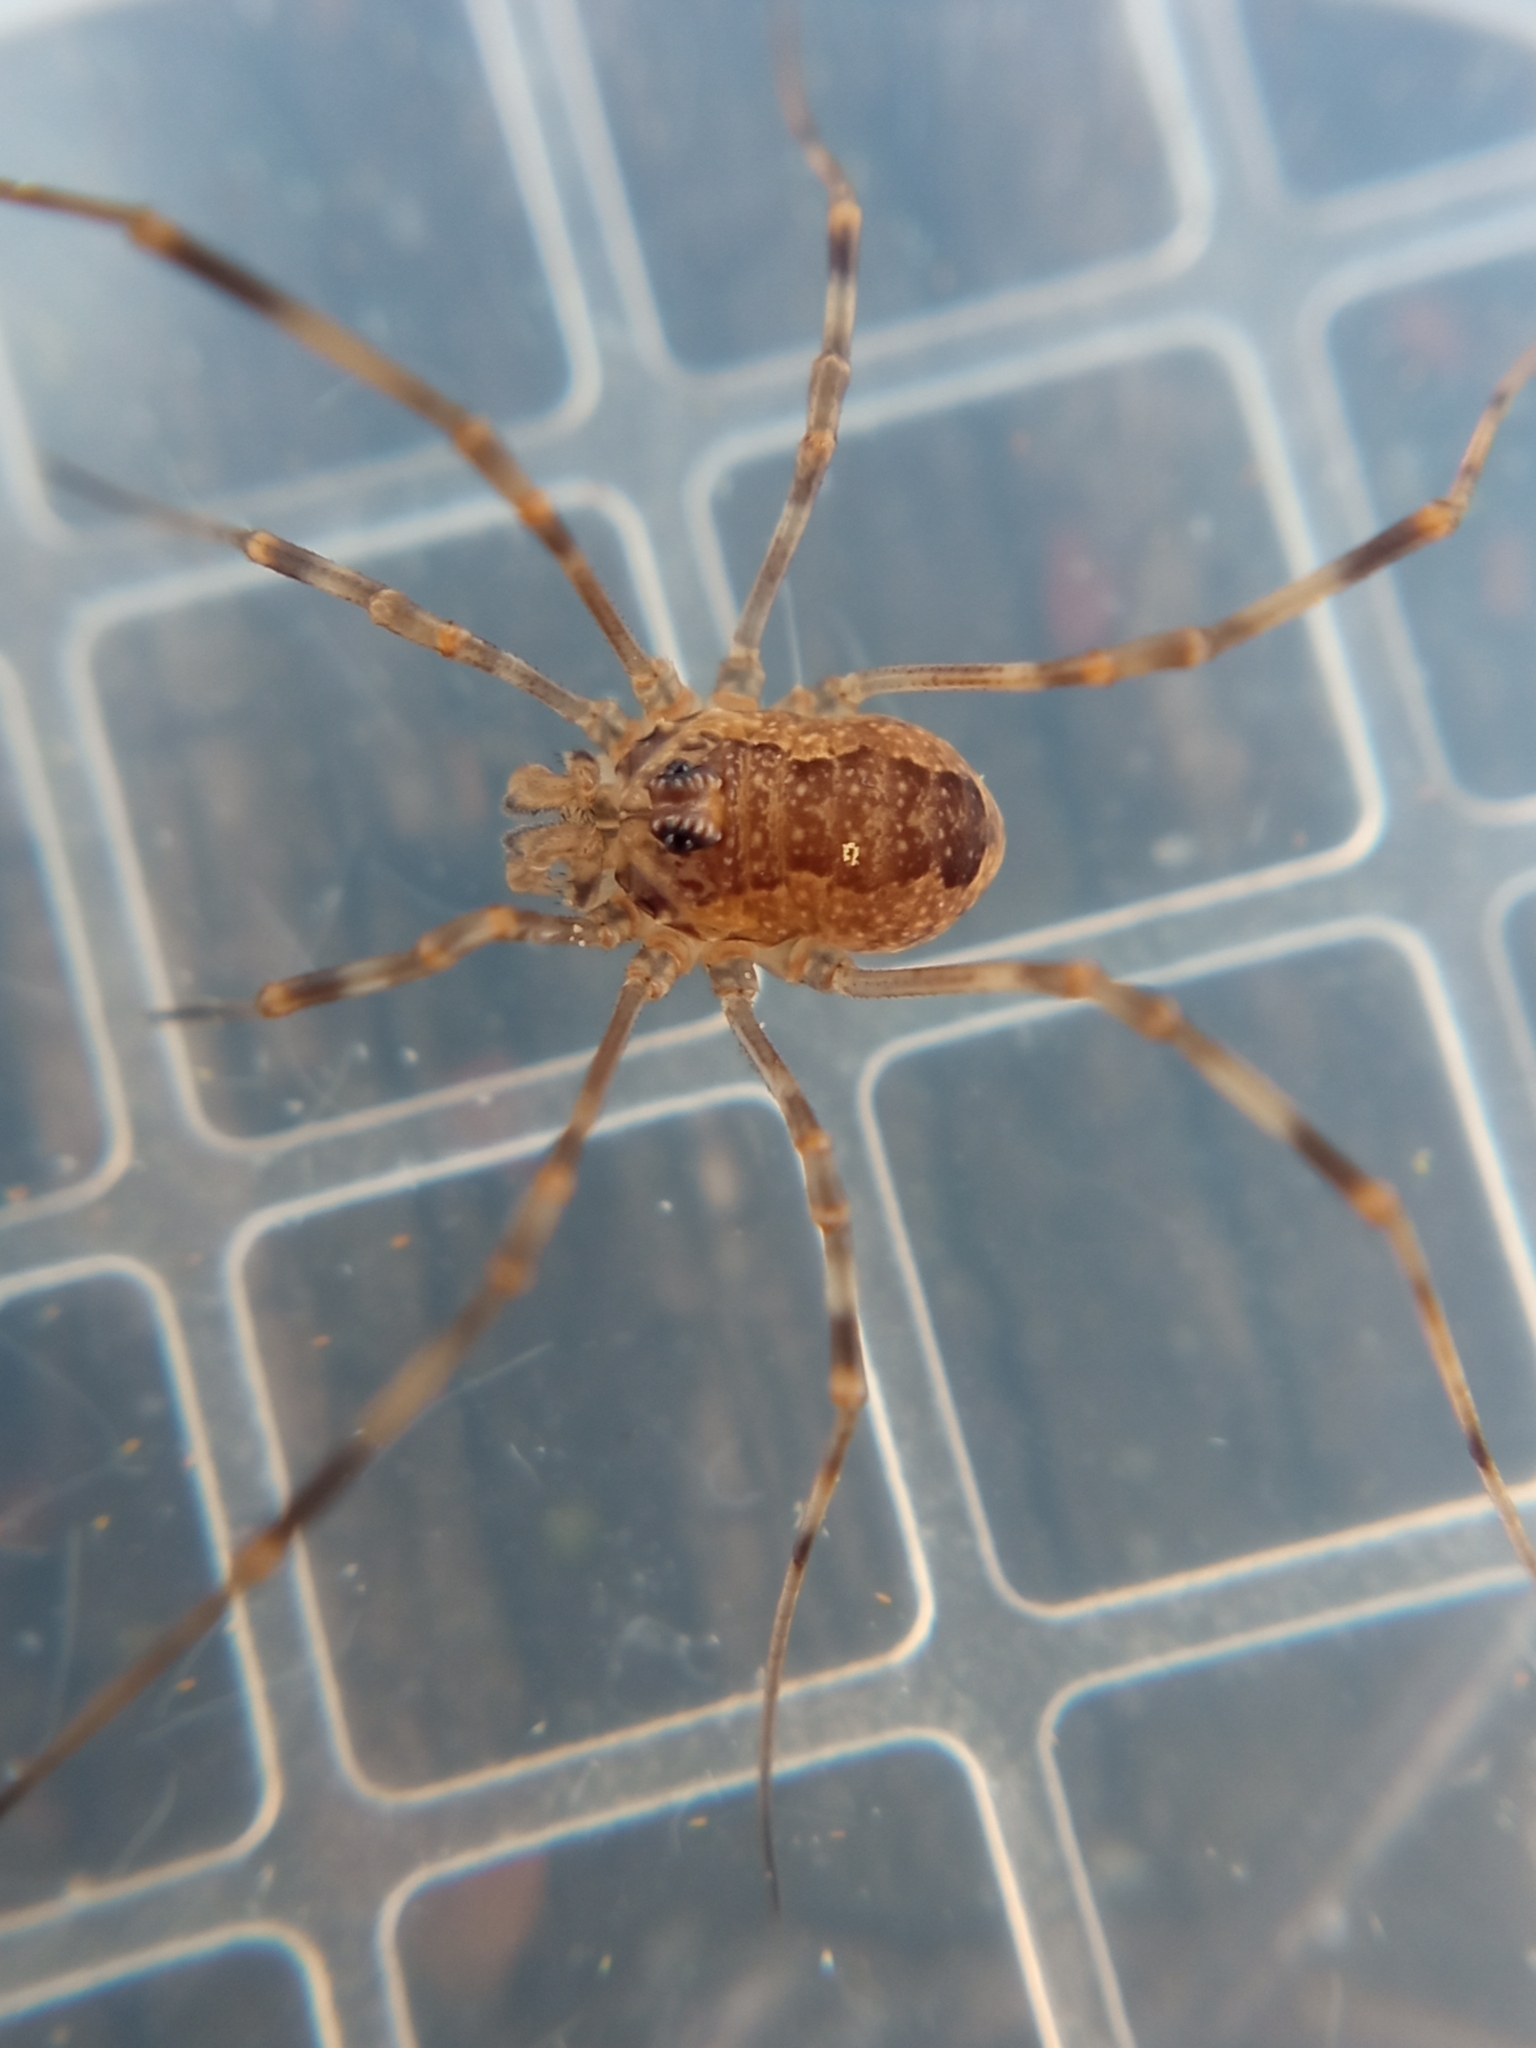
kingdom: Animalia
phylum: Arthropoda
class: Arachnida
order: Opiliones
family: Phalangiidae
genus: Rilaena
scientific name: Rilaena triangularis
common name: Spring harvestman
